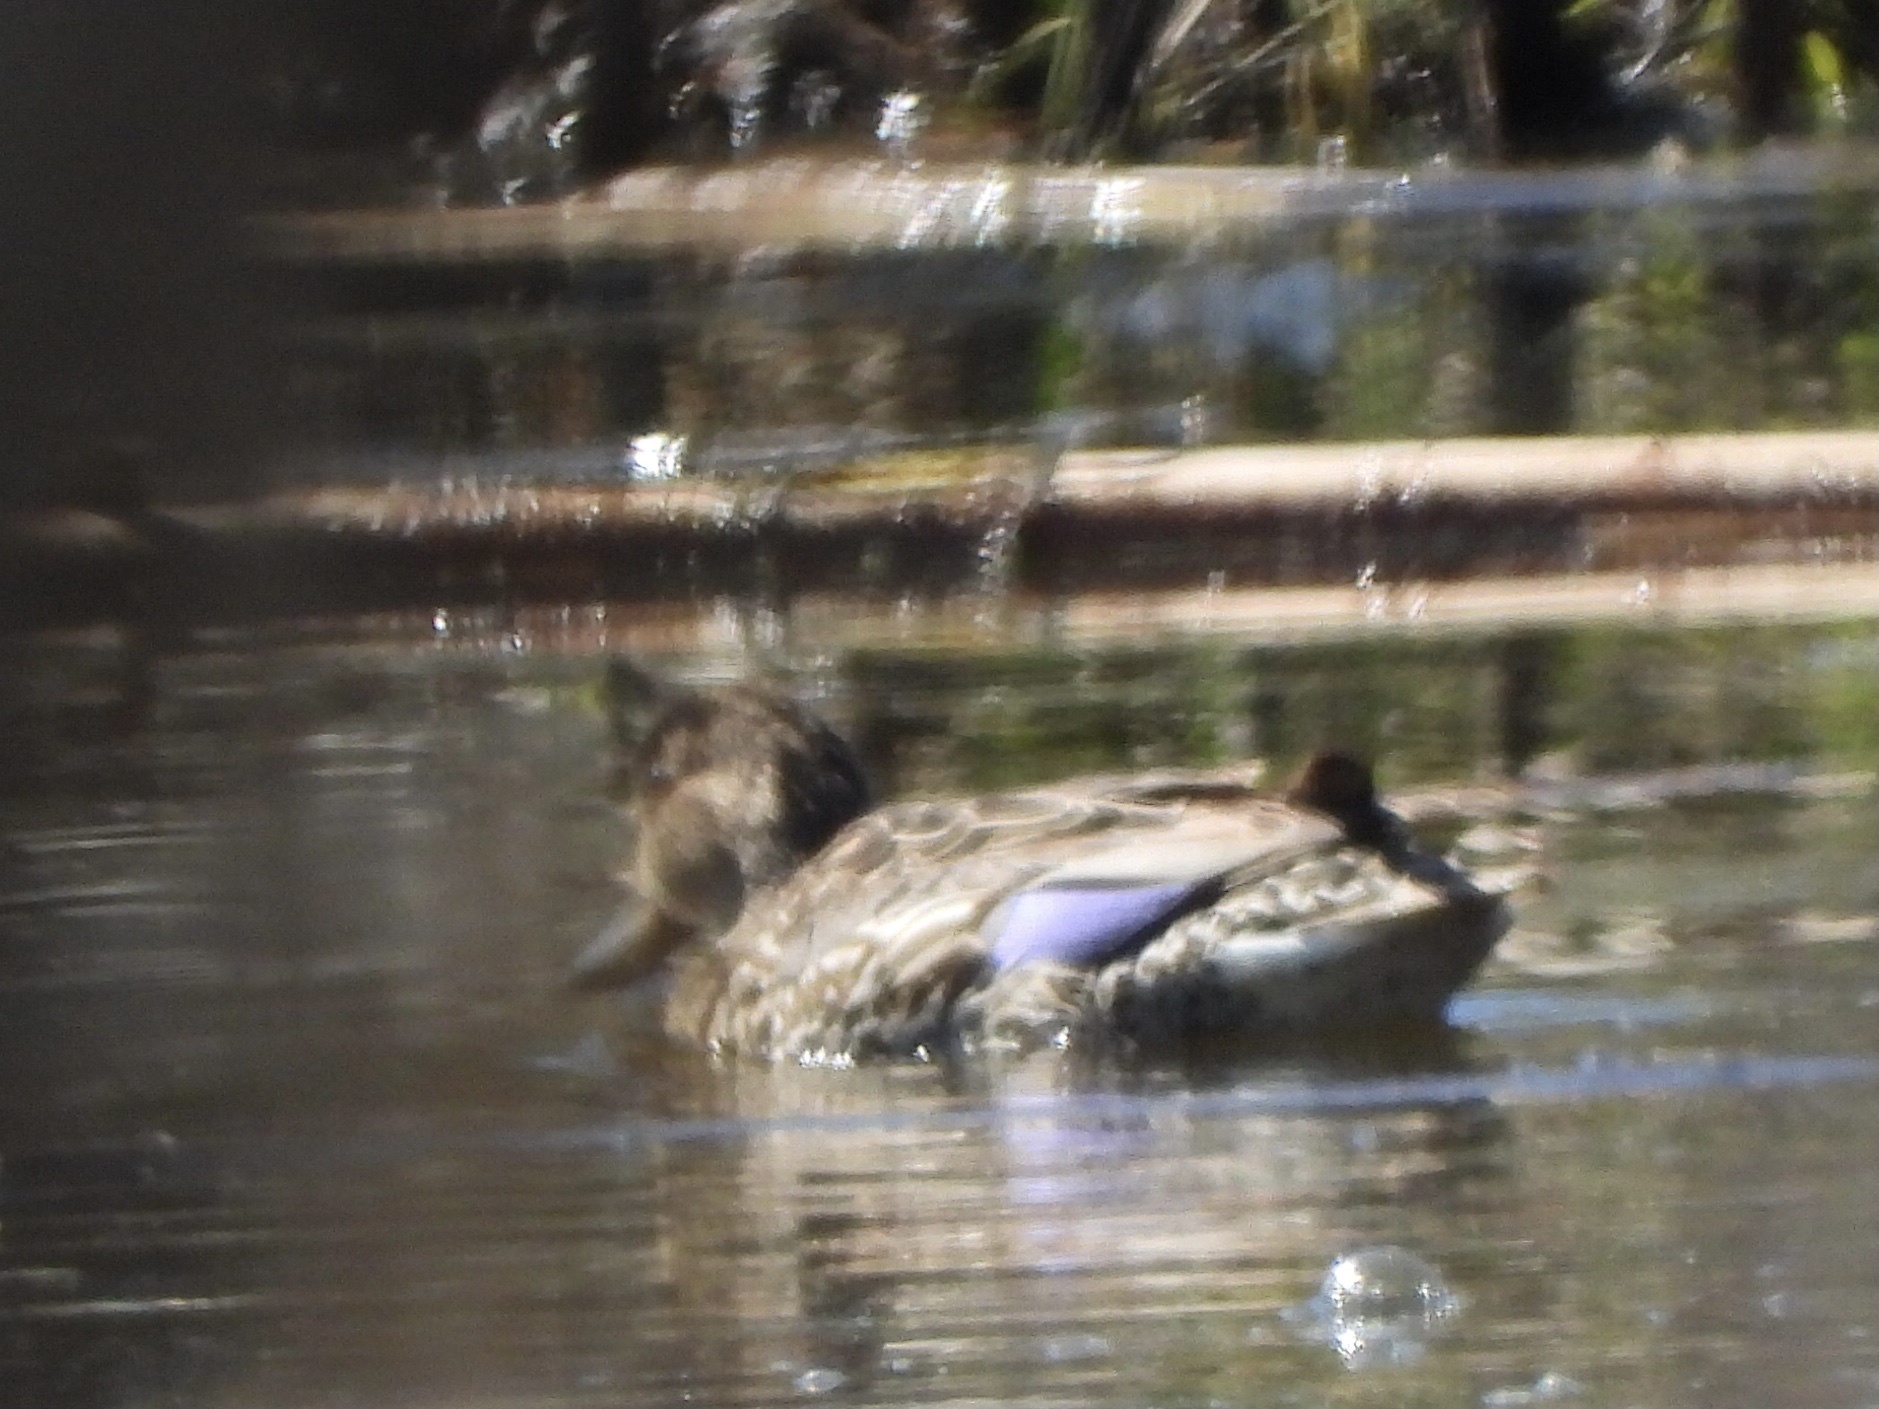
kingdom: Animalia
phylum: Chordata
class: Aves
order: Anseriformes
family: Anatidae
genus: Anas
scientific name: Anas crecca
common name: Eurasian teal
